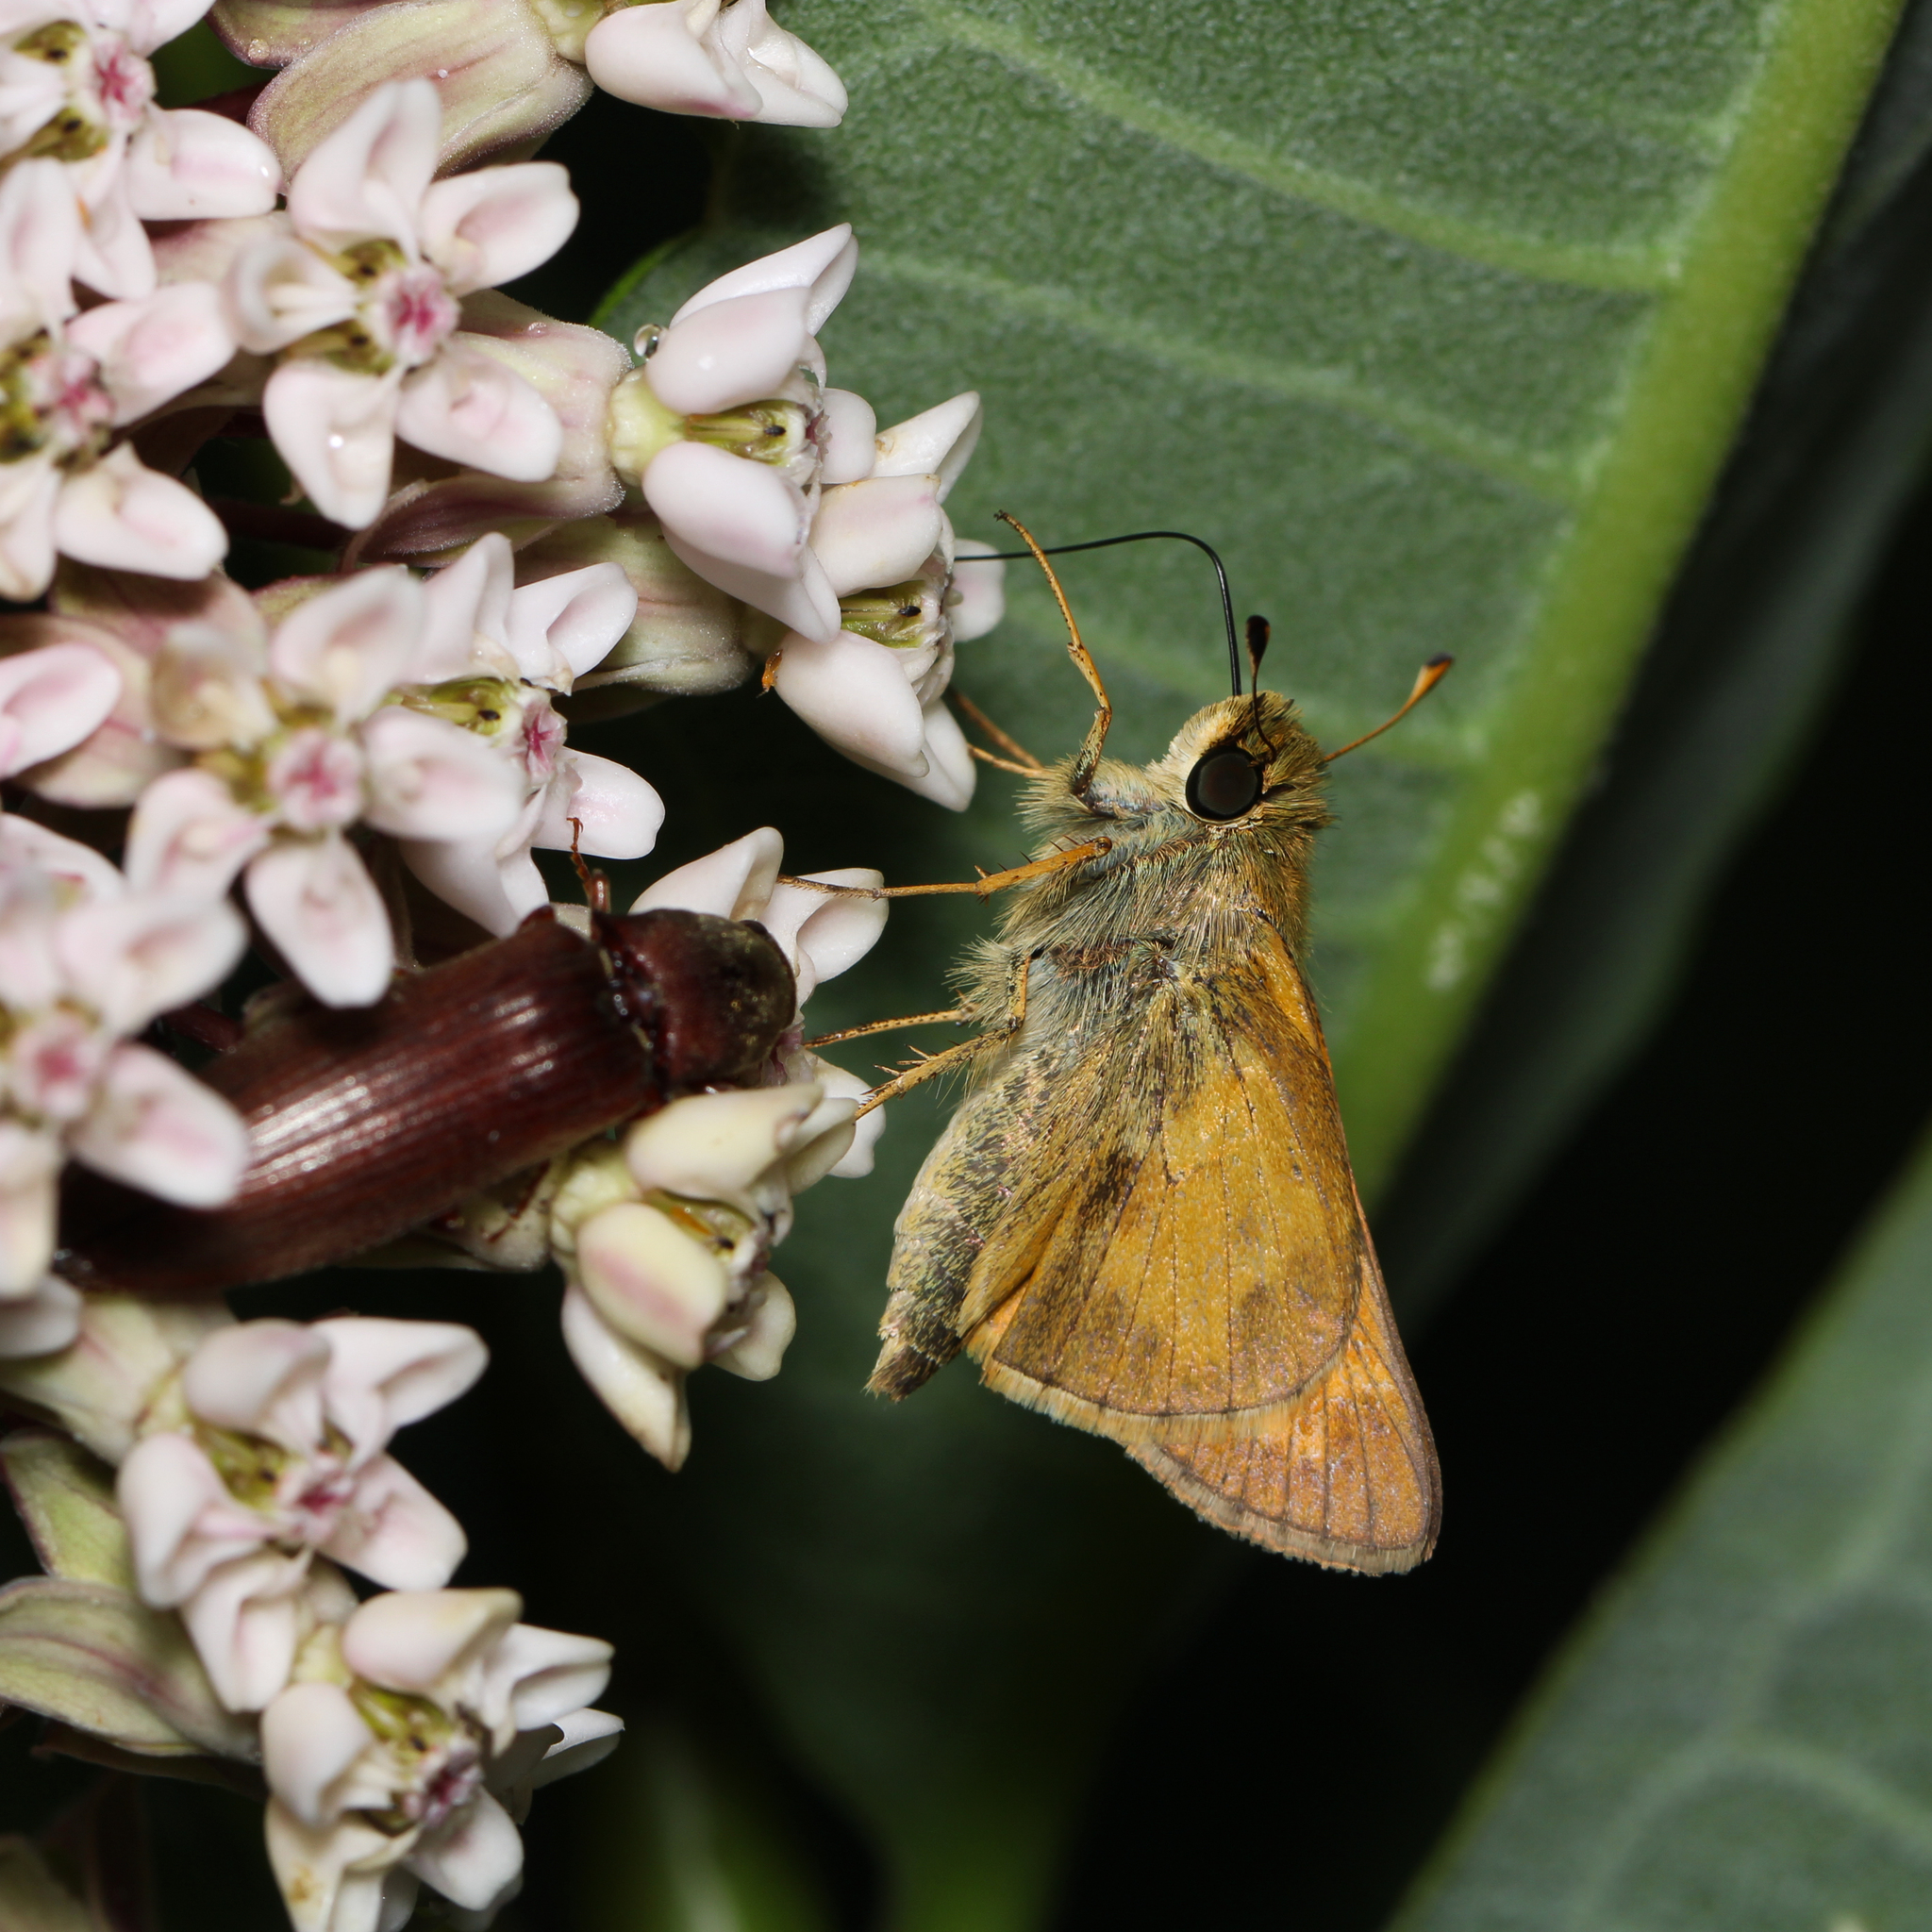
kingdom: Animalia
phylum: Arthropoda
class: Insecta
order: Lepidoptera
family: Hesperiidae
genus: Atalopedes
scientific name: Atalopedes
